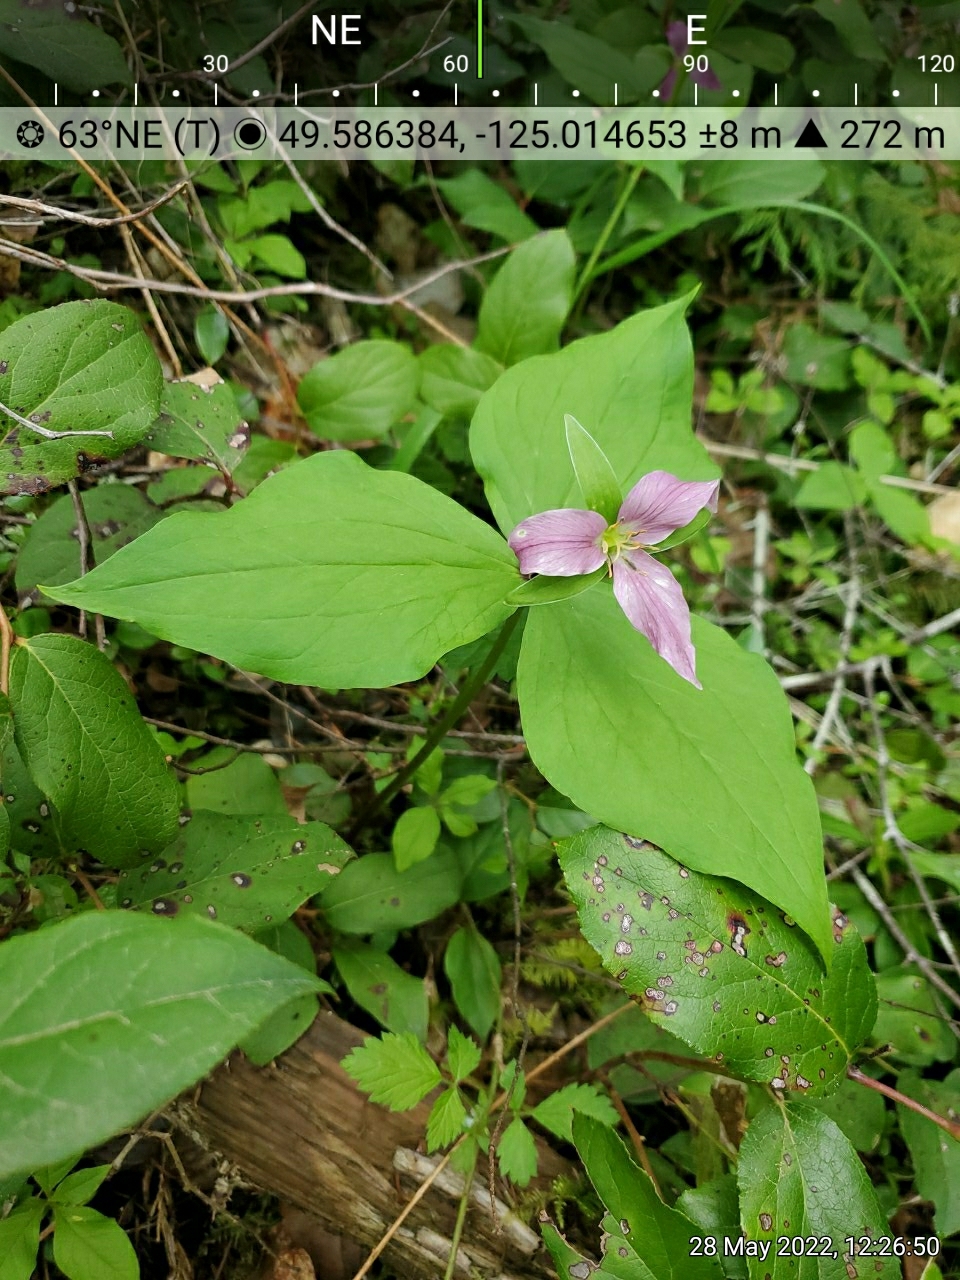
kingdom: Plantae
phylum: Tracheophyta
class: Liliopsida
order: Liliales
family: Melanthiaceae
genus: Trillium
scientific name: Trillium ovatum
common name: Pacific trillium
